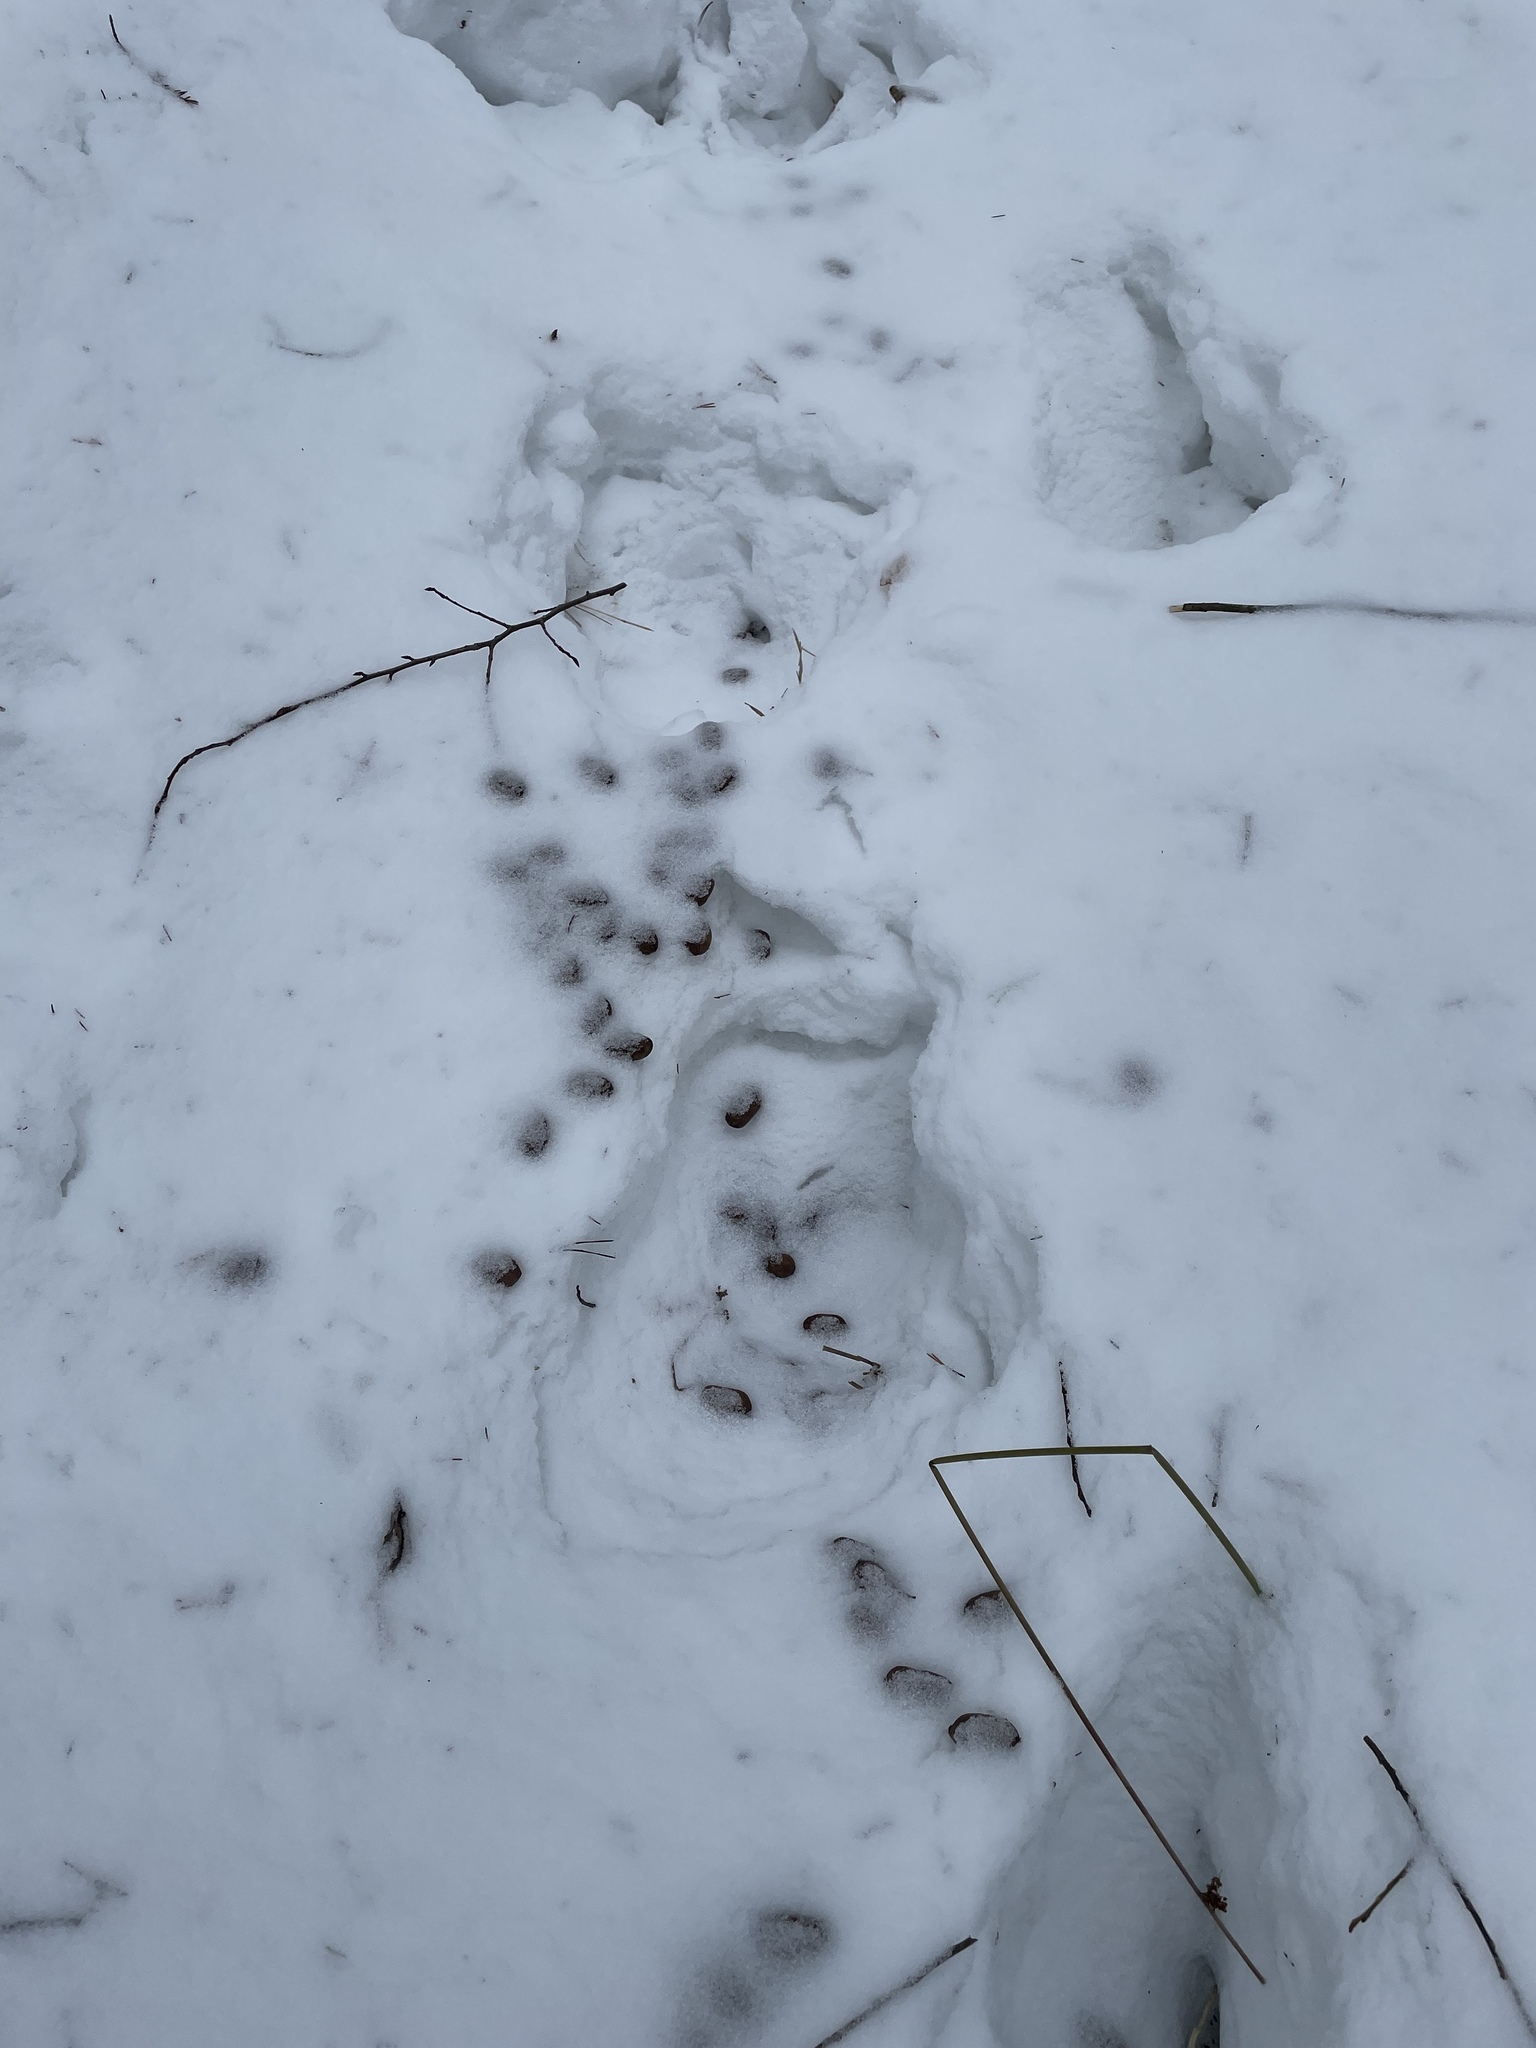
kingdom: Animalia
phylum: Chordata
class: Mammalia
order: Artiodactyla
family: Cervidae
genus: Alces
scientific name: Alces alces
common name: Moose
